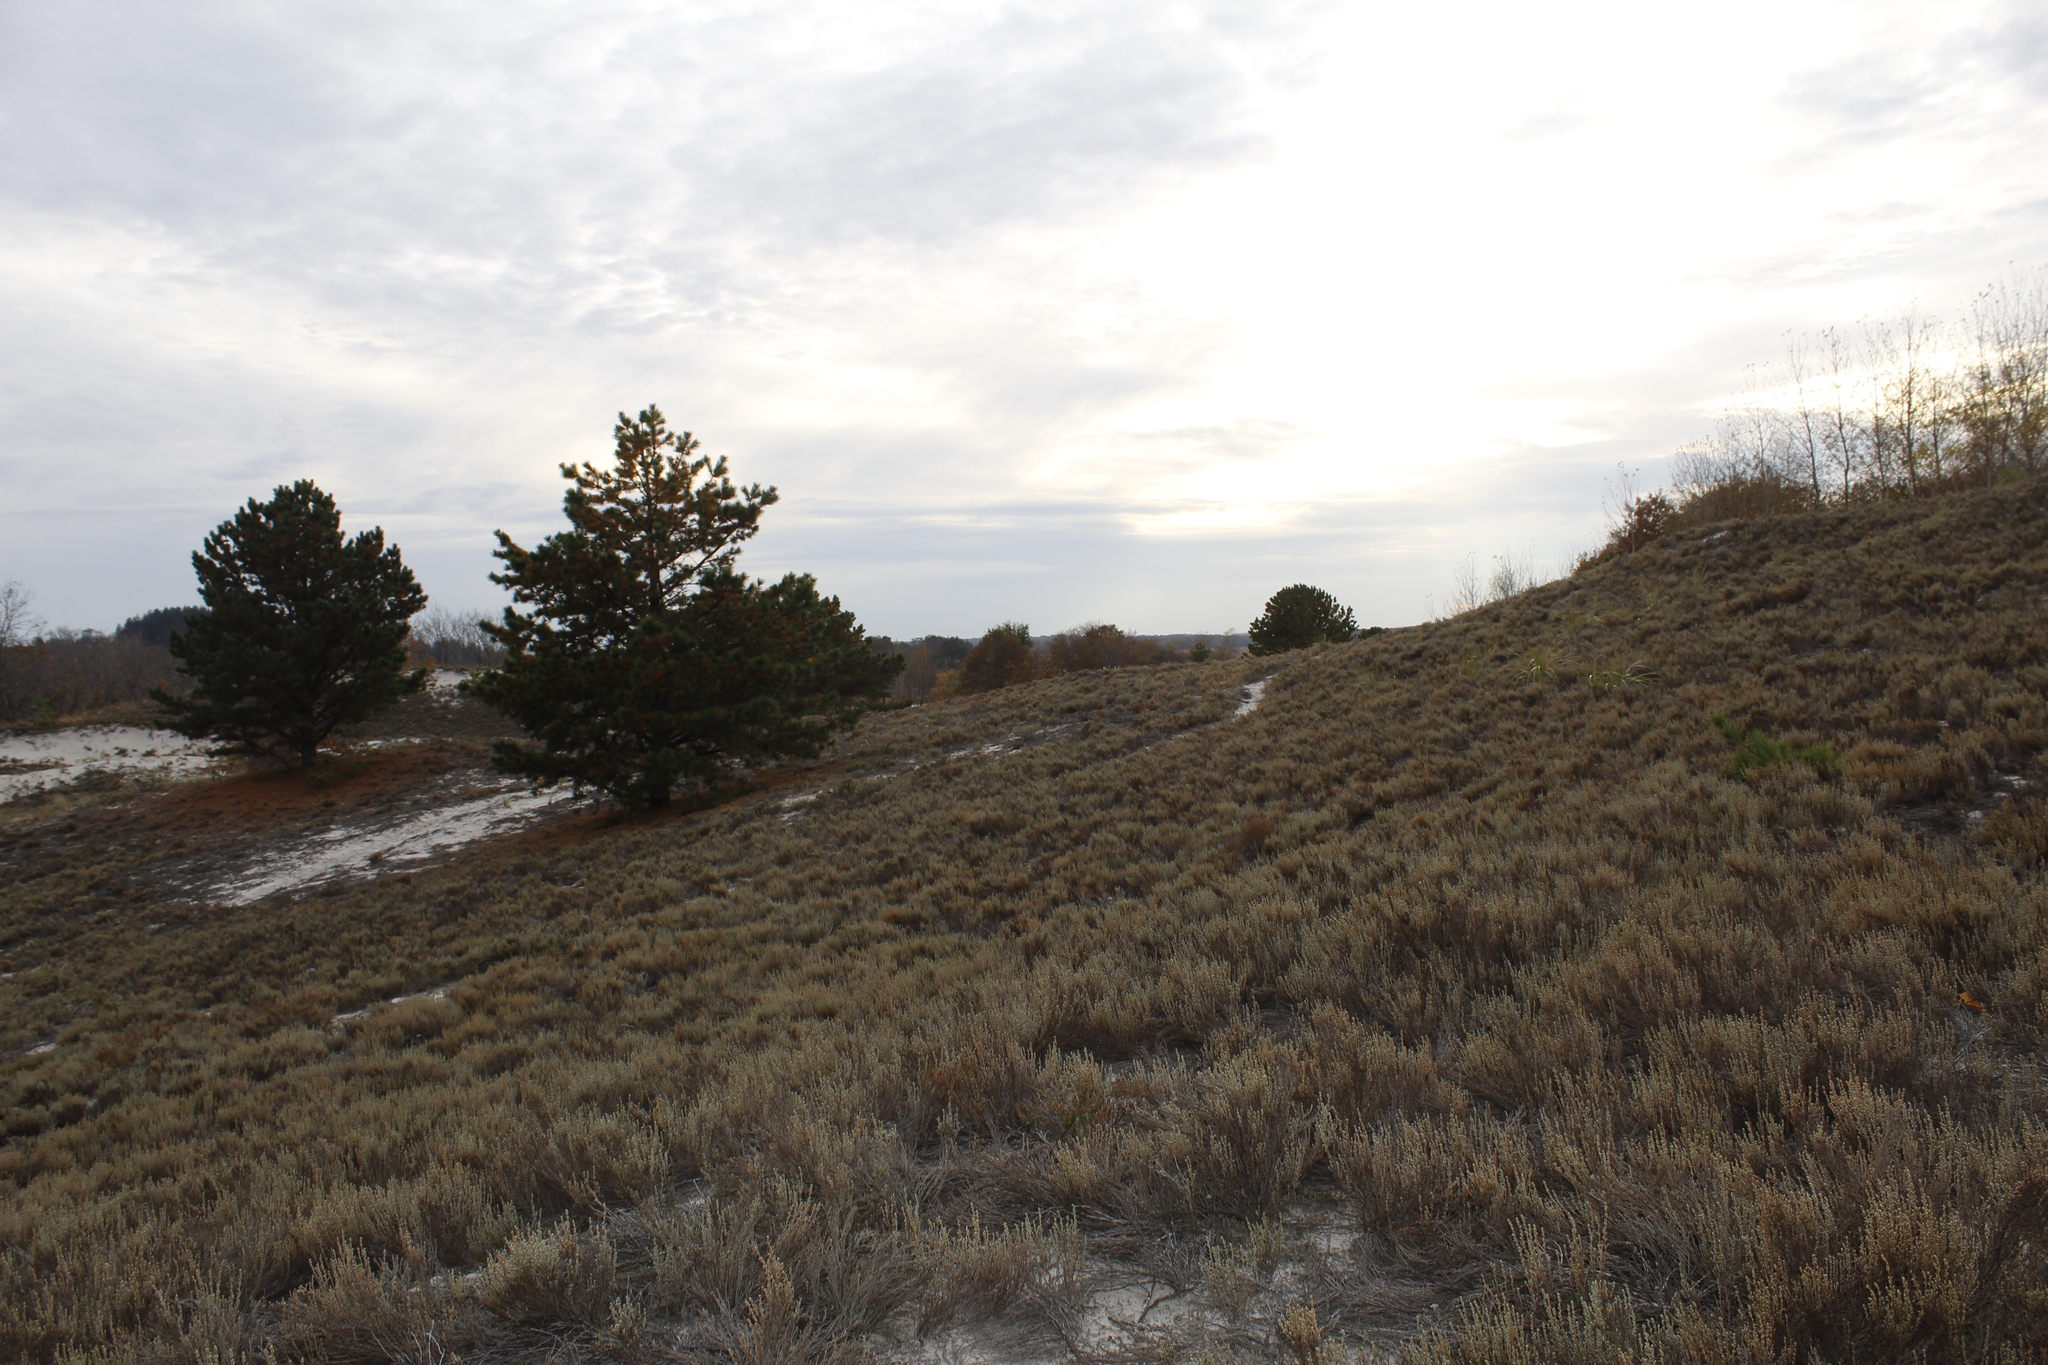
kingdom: Plantae
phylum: Tracheophyta
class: Magnoliopsida
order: Malvales
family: Cistaceae
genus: Hudsonia
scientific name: Hudsonia tomentosa
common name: Beach-heath
